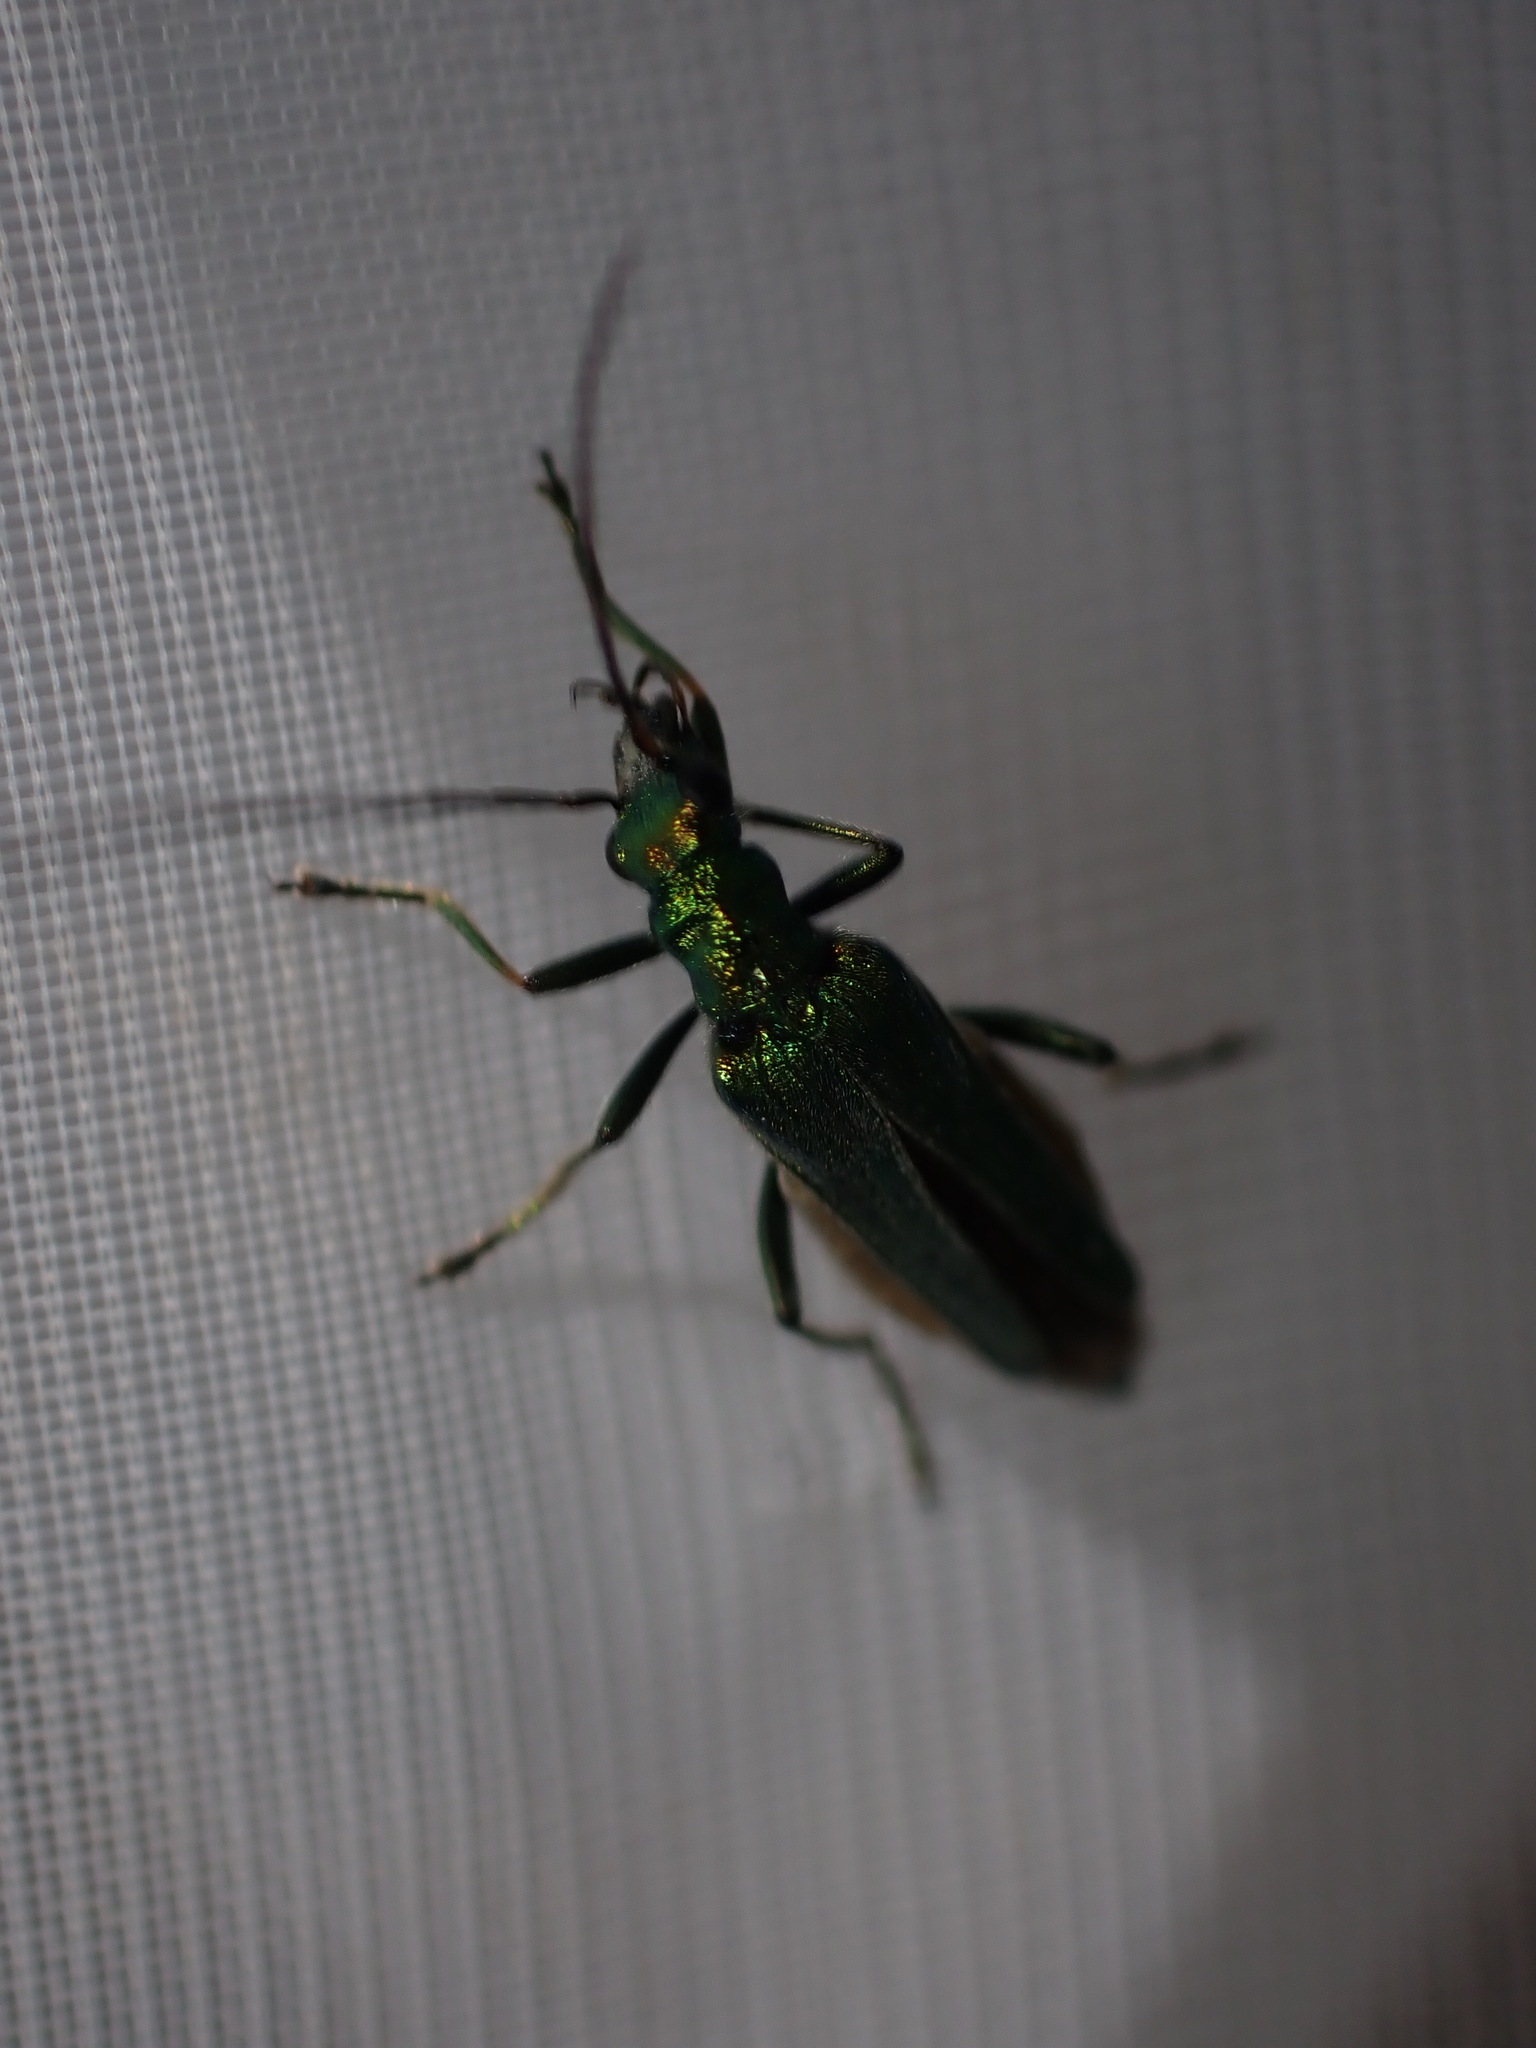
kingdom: Animalia
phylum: Arthropoda
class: Insecta
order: Coleoptera
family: Oedemeridae
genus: Oedemera
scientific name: Oedemera nobilis
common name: Swollen-thighed beetle
